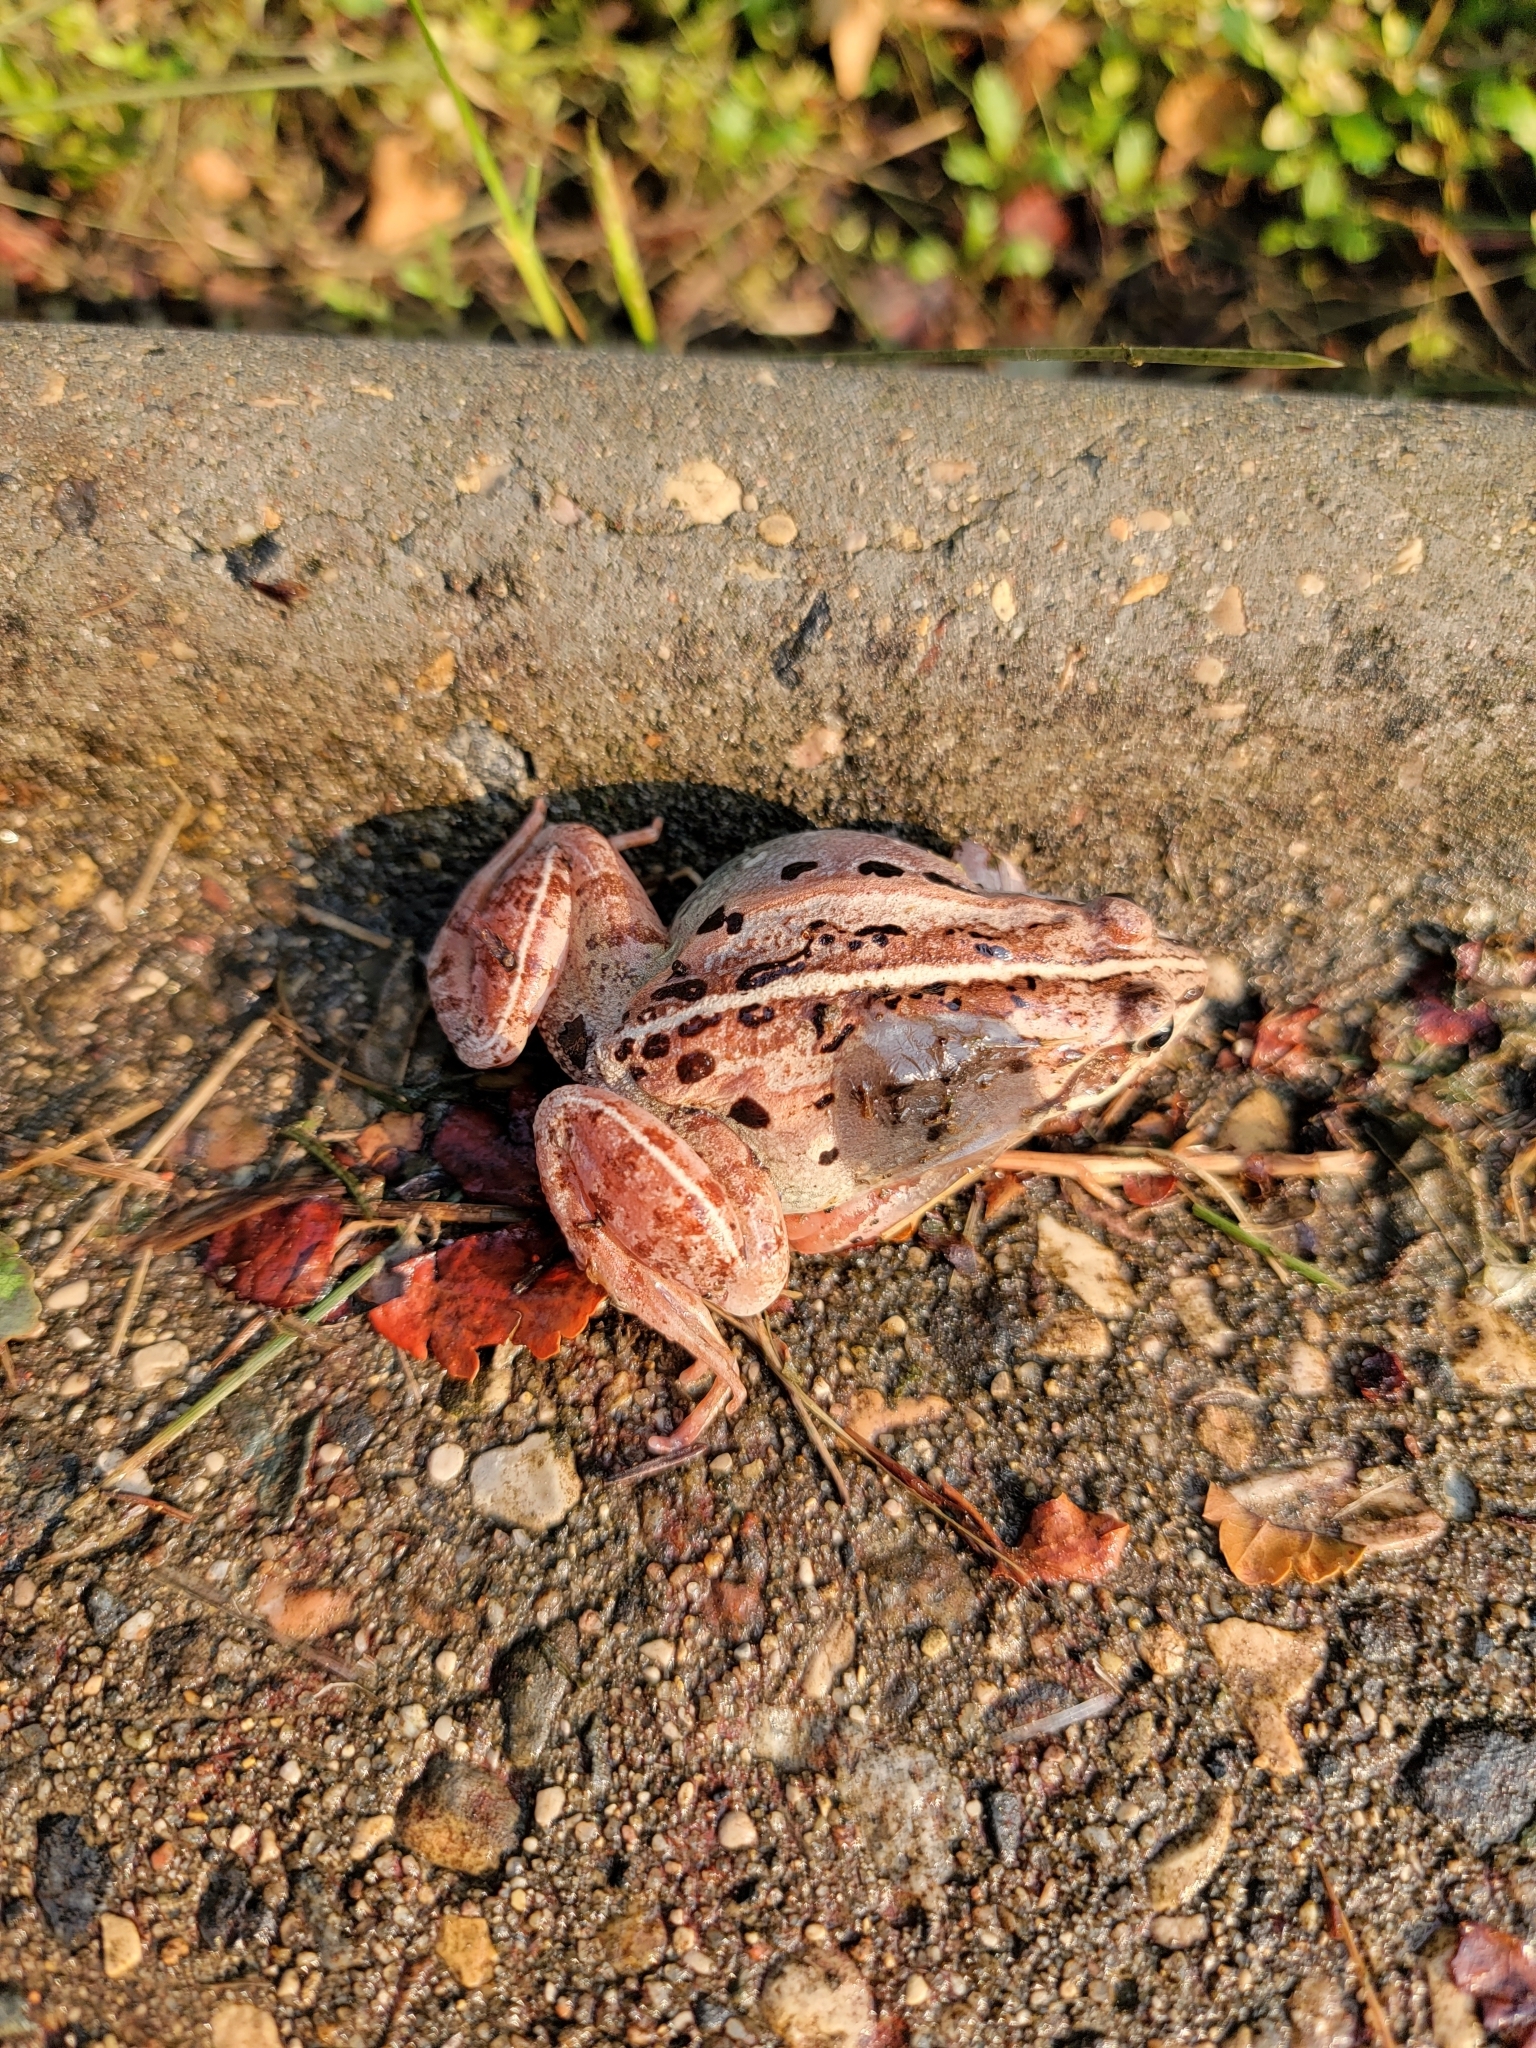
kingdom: Animalia
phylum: Chordata
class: Amphibia
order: Anura
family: Ranidae
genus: Lithobates
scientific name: Lithobates sylvaticus
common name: Wood frog
